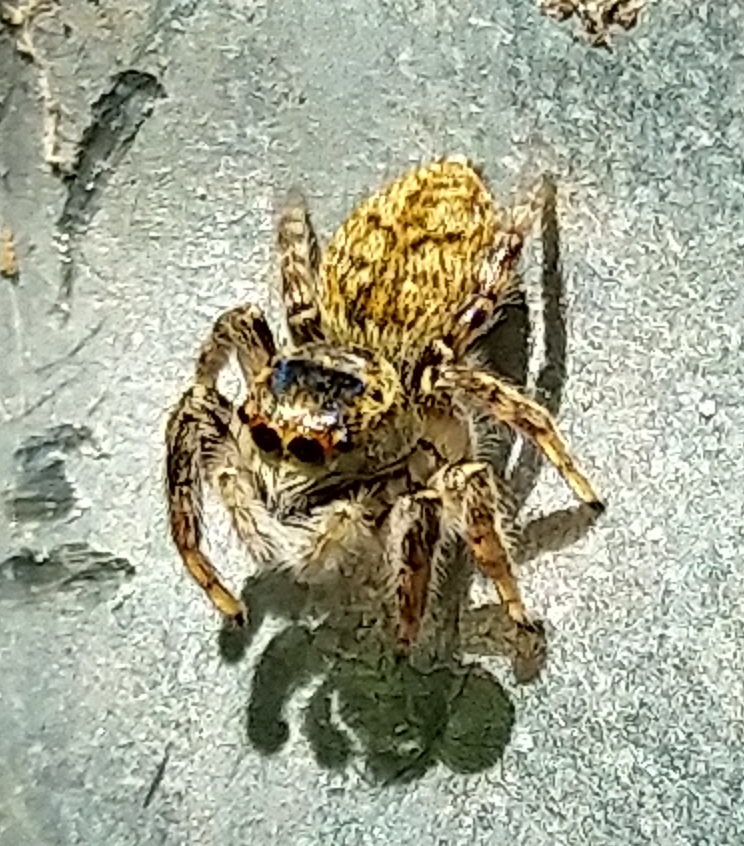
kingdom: Animalia
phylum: Arthropoda
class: Arachnida
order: Araneae
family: Salticidae
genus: Carrhotus
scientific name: Carrhotus xanthogramma
